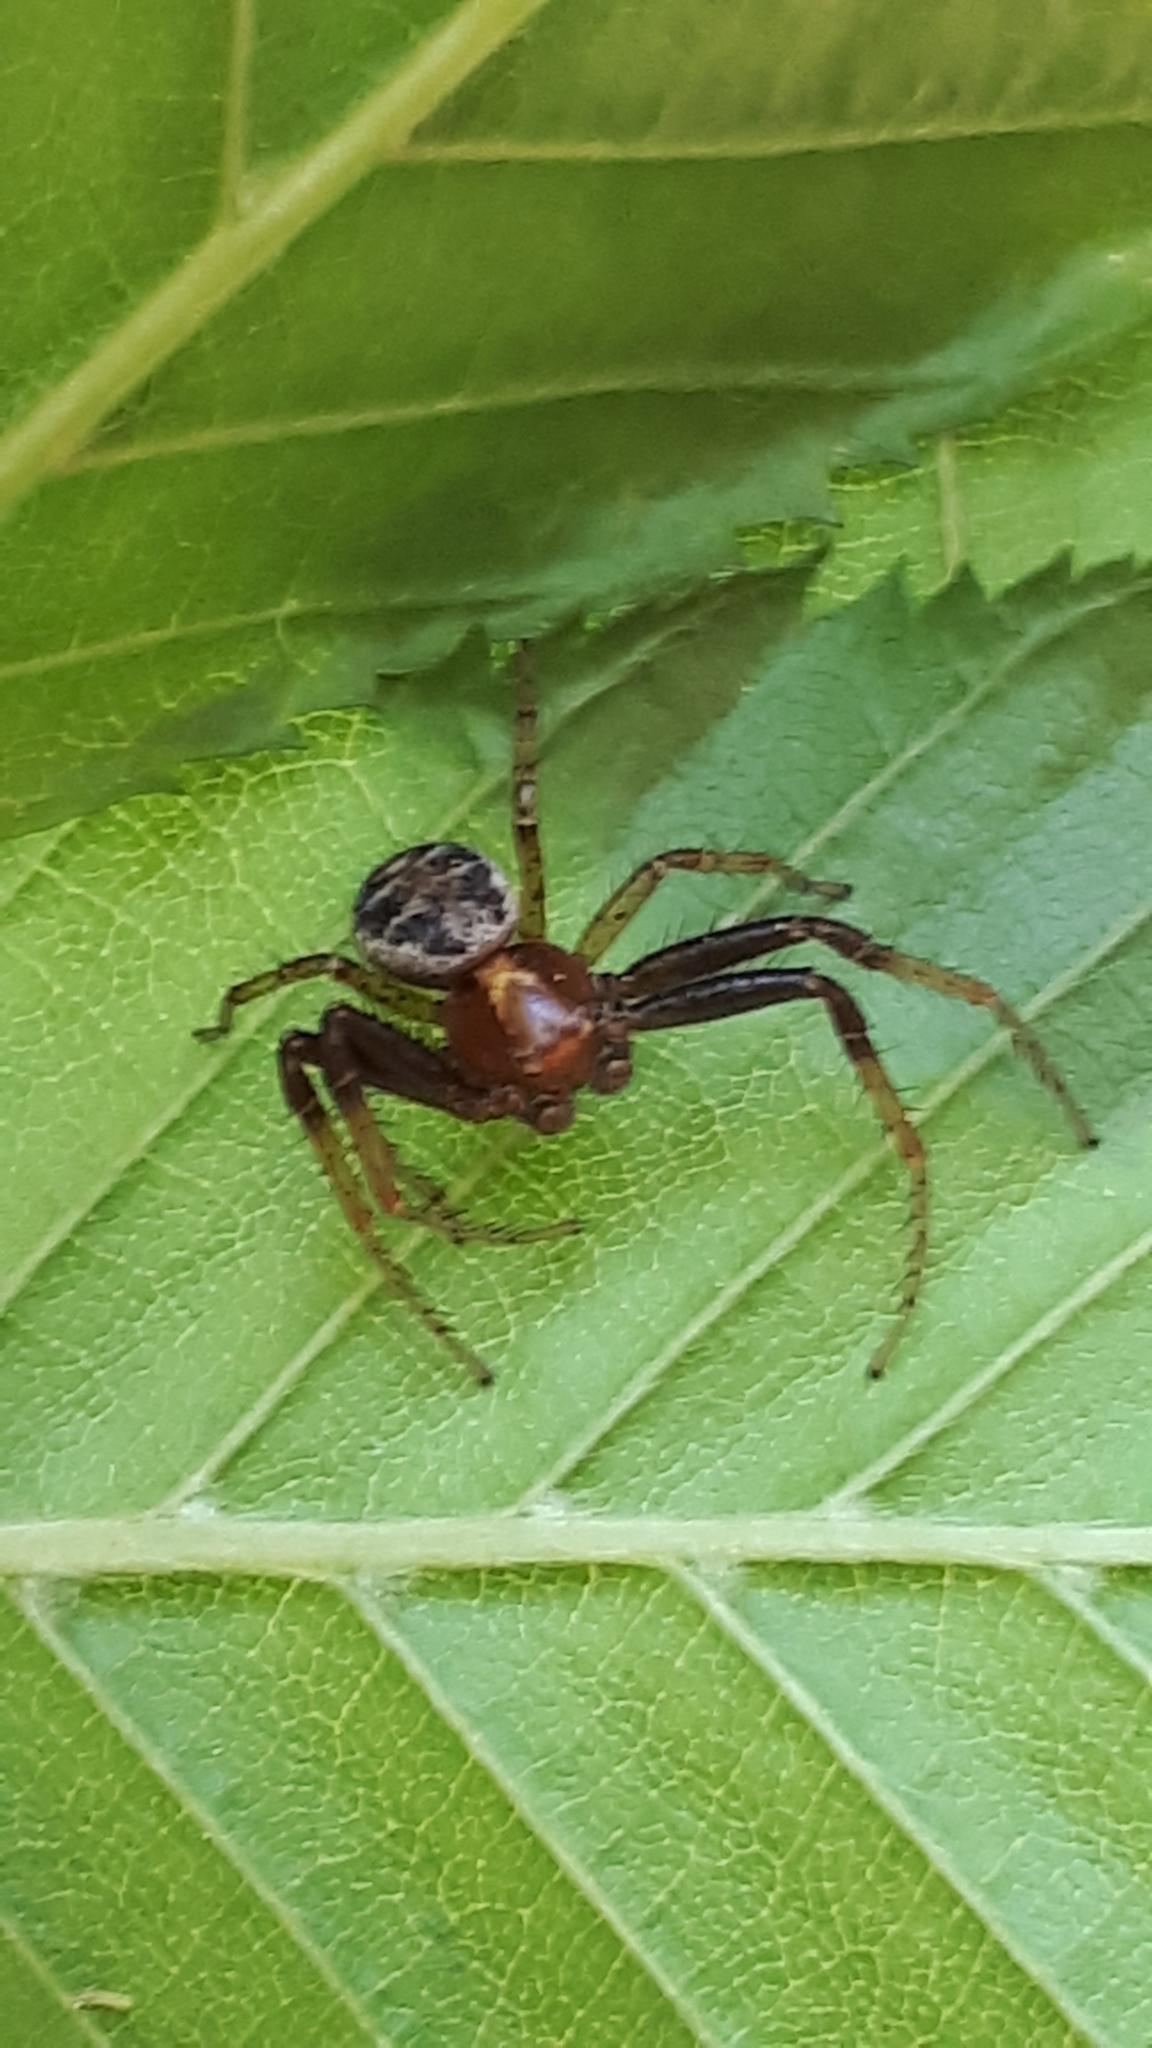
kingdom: Animalia
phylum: Arthropoda
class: Arachnida
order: Araneae
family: Thomisidae
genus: Xysticus
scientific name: Xysticus
